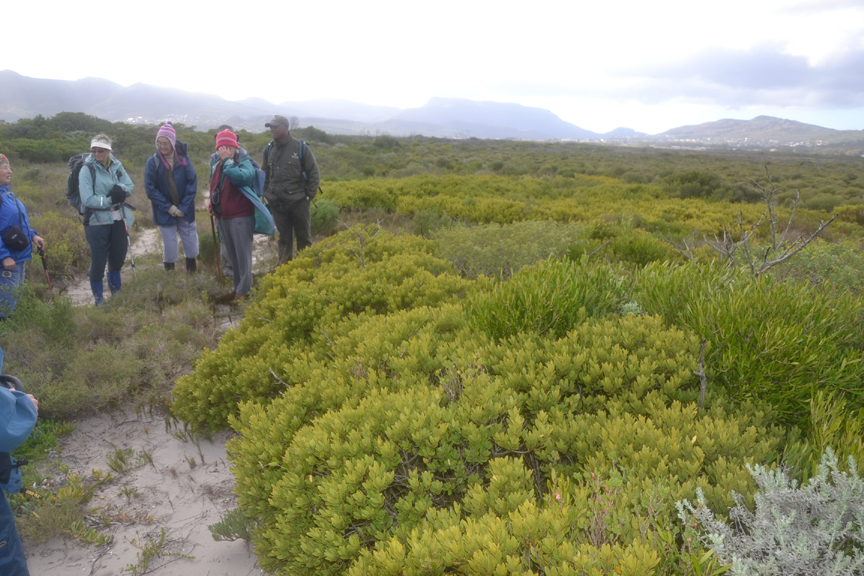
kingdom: Plantae
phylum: Tracheophyta
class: Magnoliopsida
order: Ericales
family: Ebenaceae
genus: Euclea
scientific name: Euclea racemosa
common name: Dune guarri
